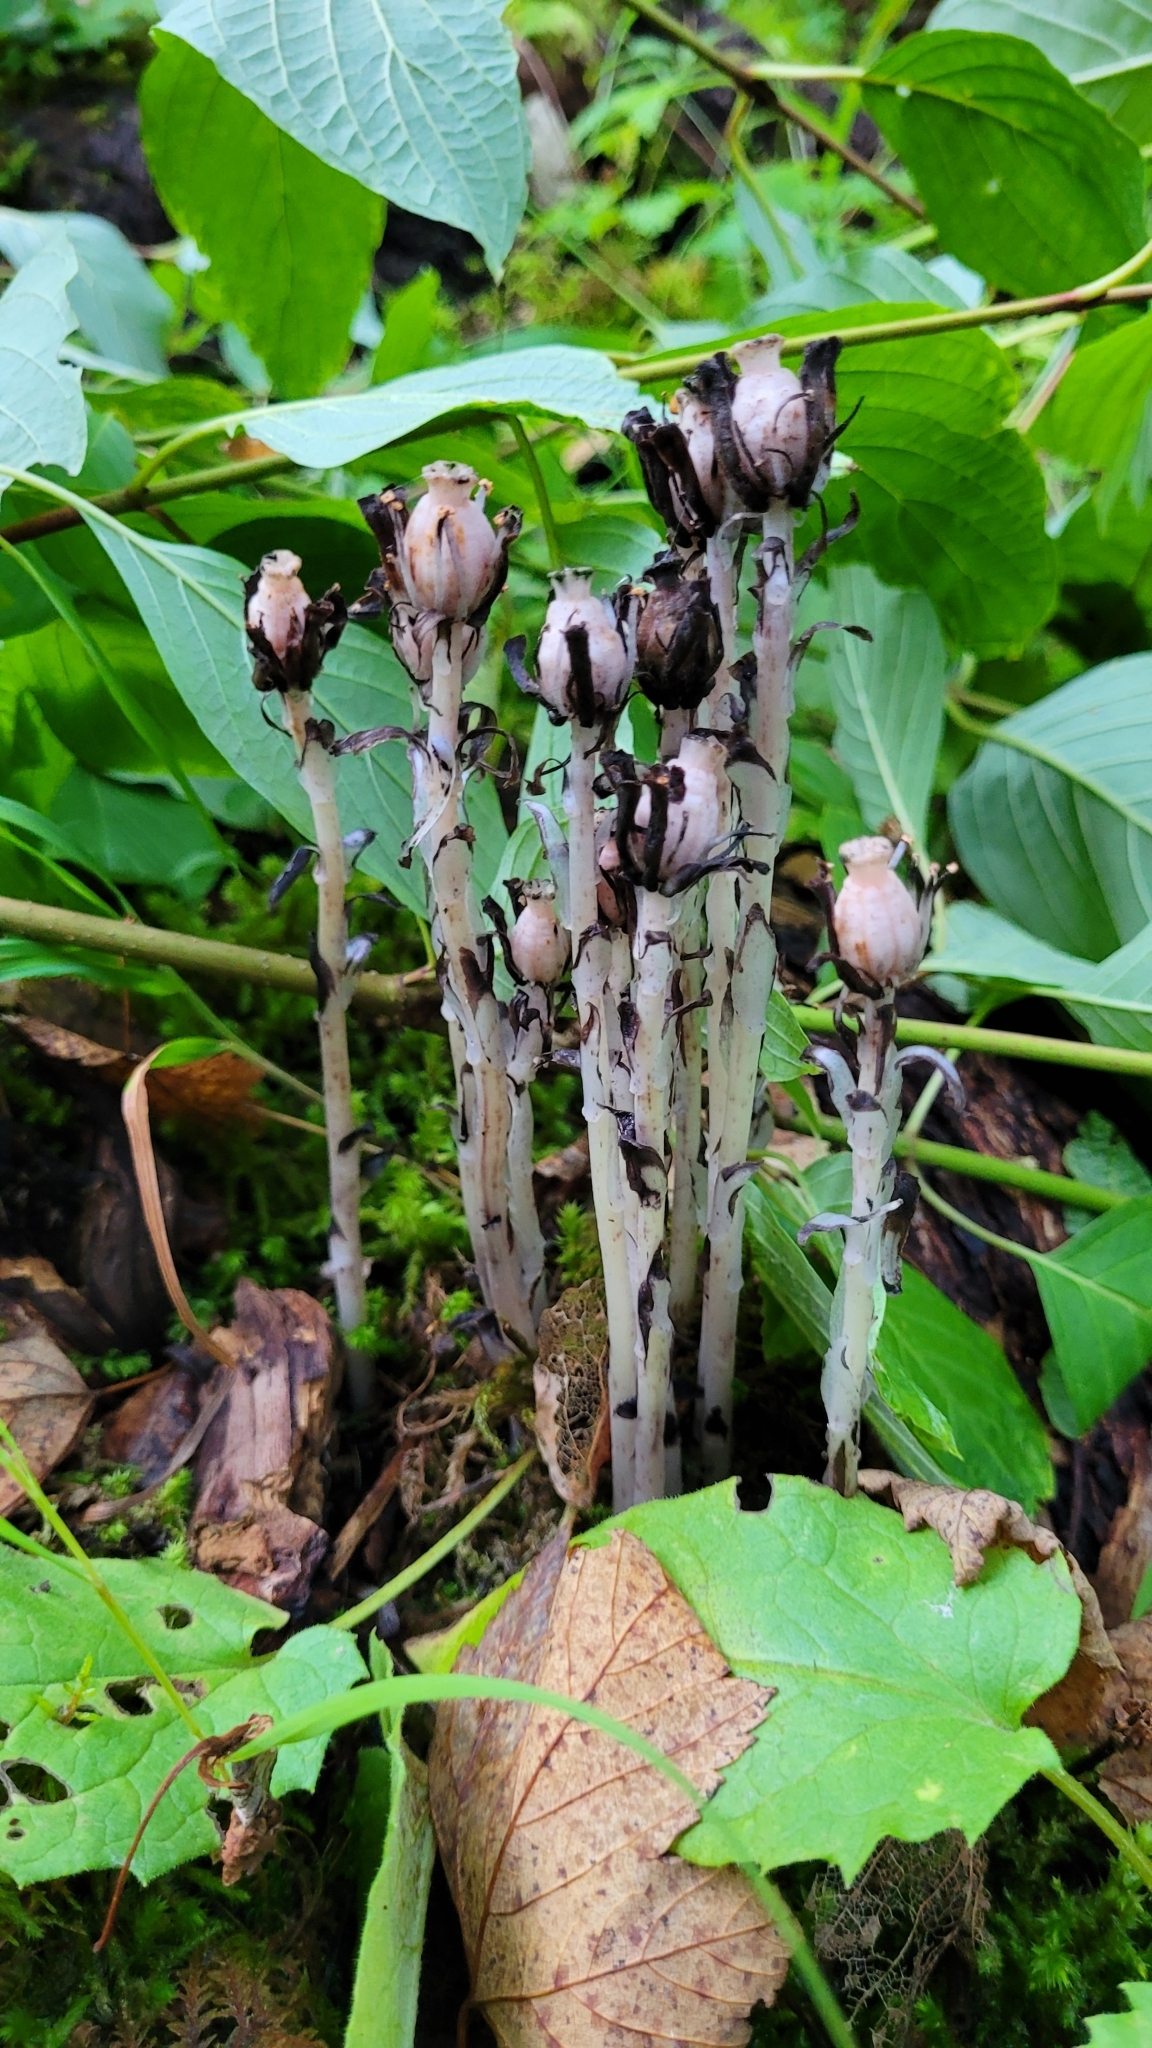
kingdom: Plantae
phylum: Tracheophyta
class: Magnoliopsida
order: Ericales
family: Ericaceae
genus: Monotropa
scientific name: Monotropa uniflora
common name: Convulsion root
